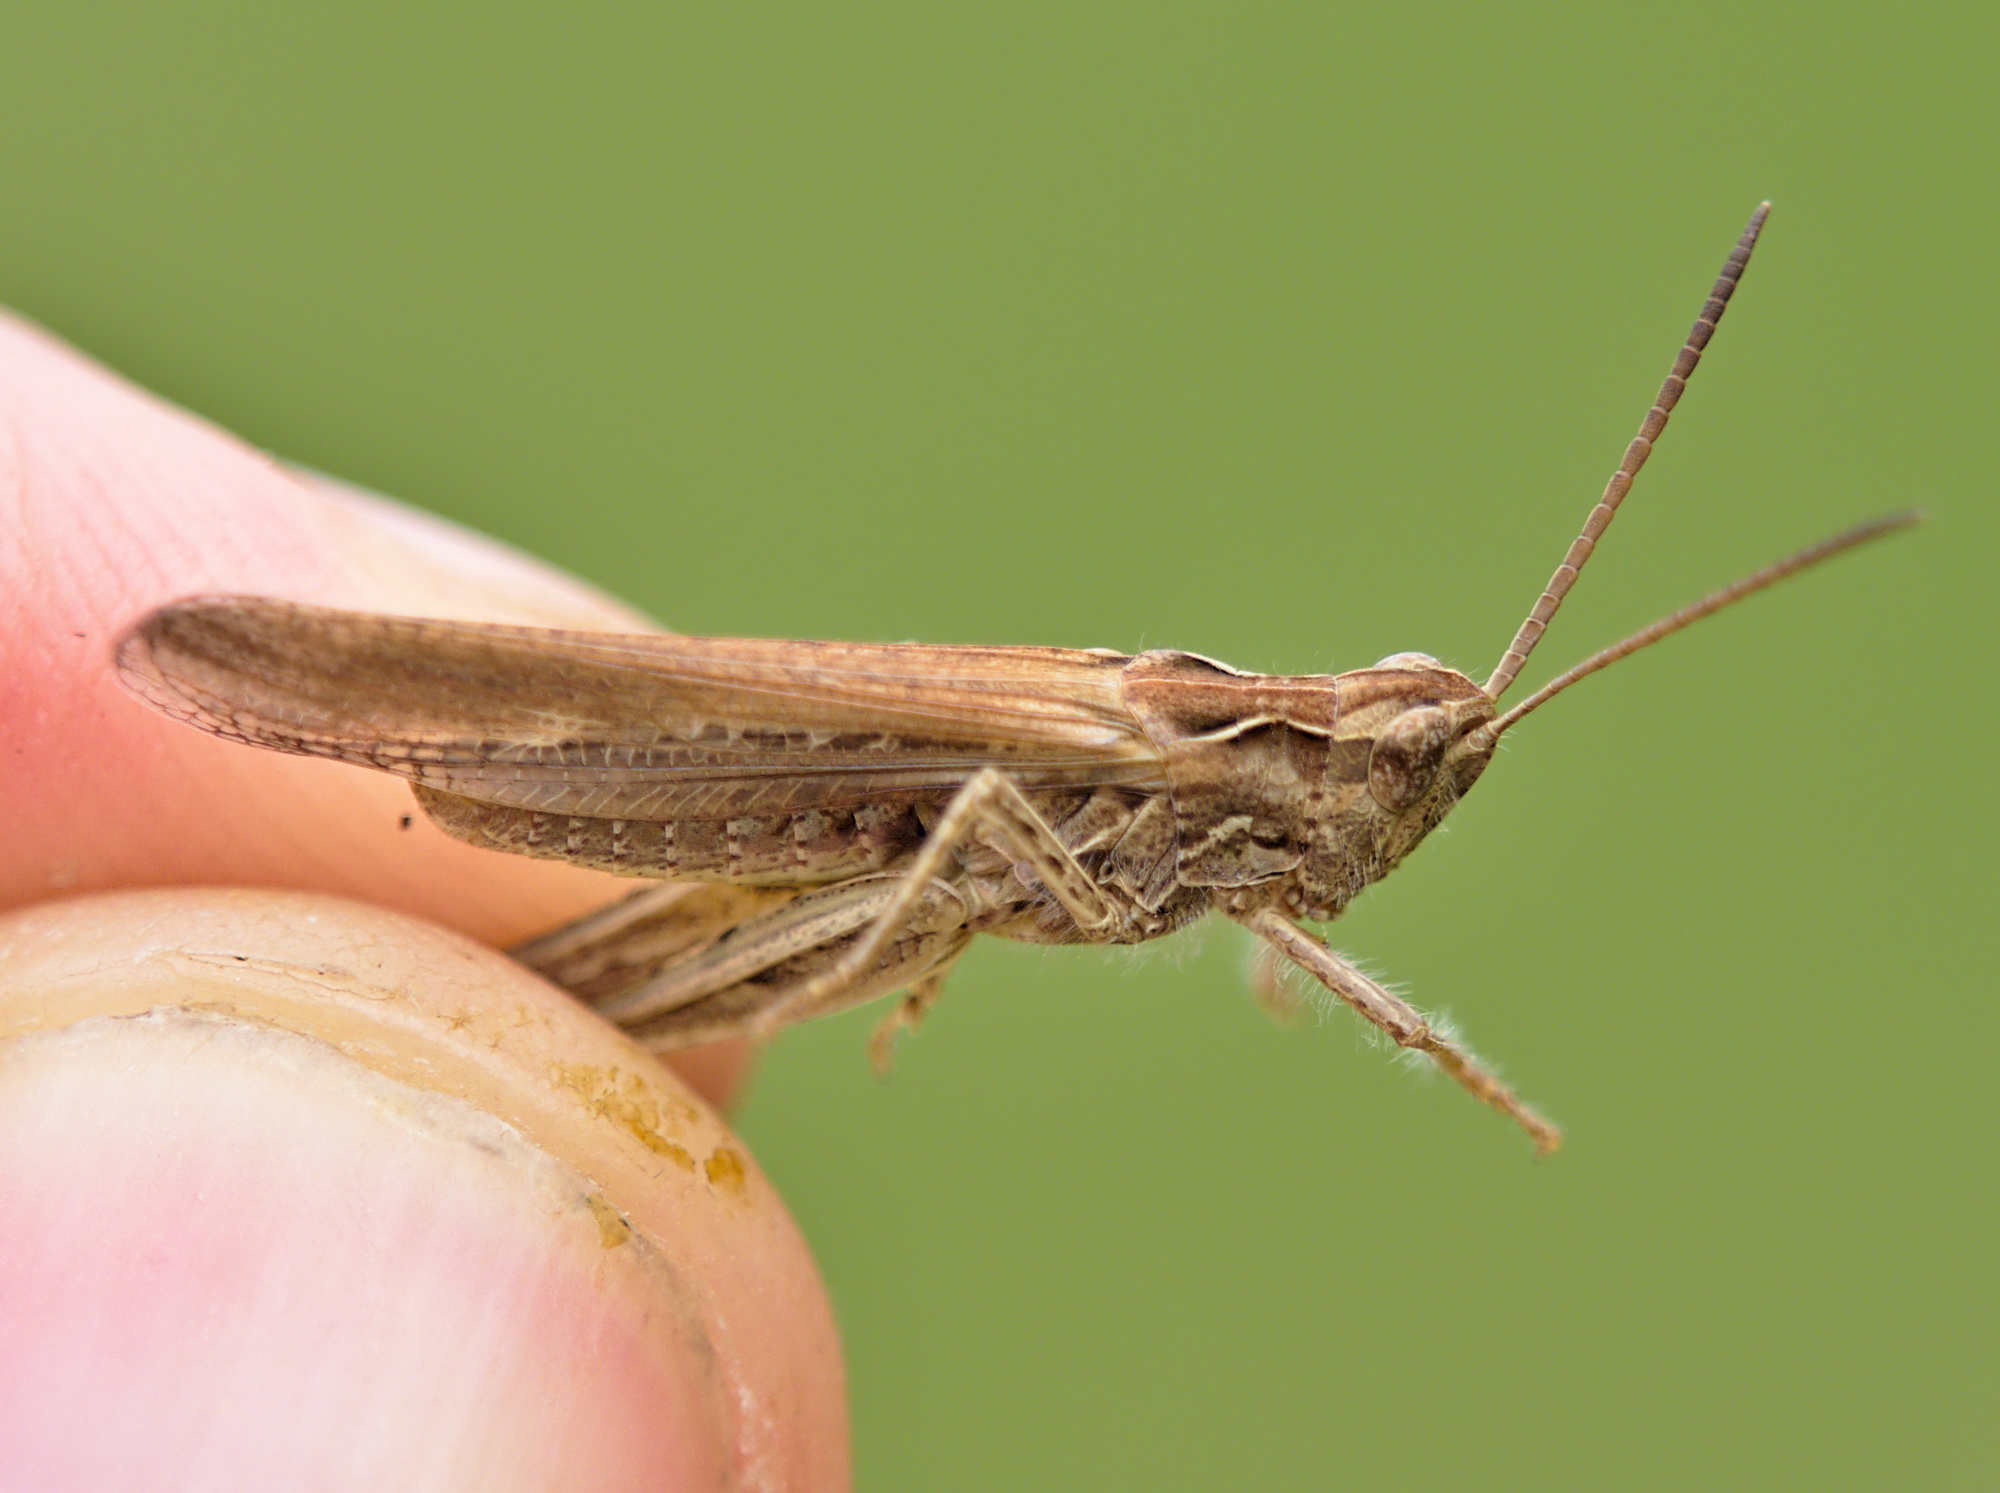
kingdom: Animalia
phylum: Arthropoda
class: Insecta
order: Orthoptera
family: Acrididae
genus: Chorthippus
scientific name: Chorthippus brunneus
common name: Field grasshopper
